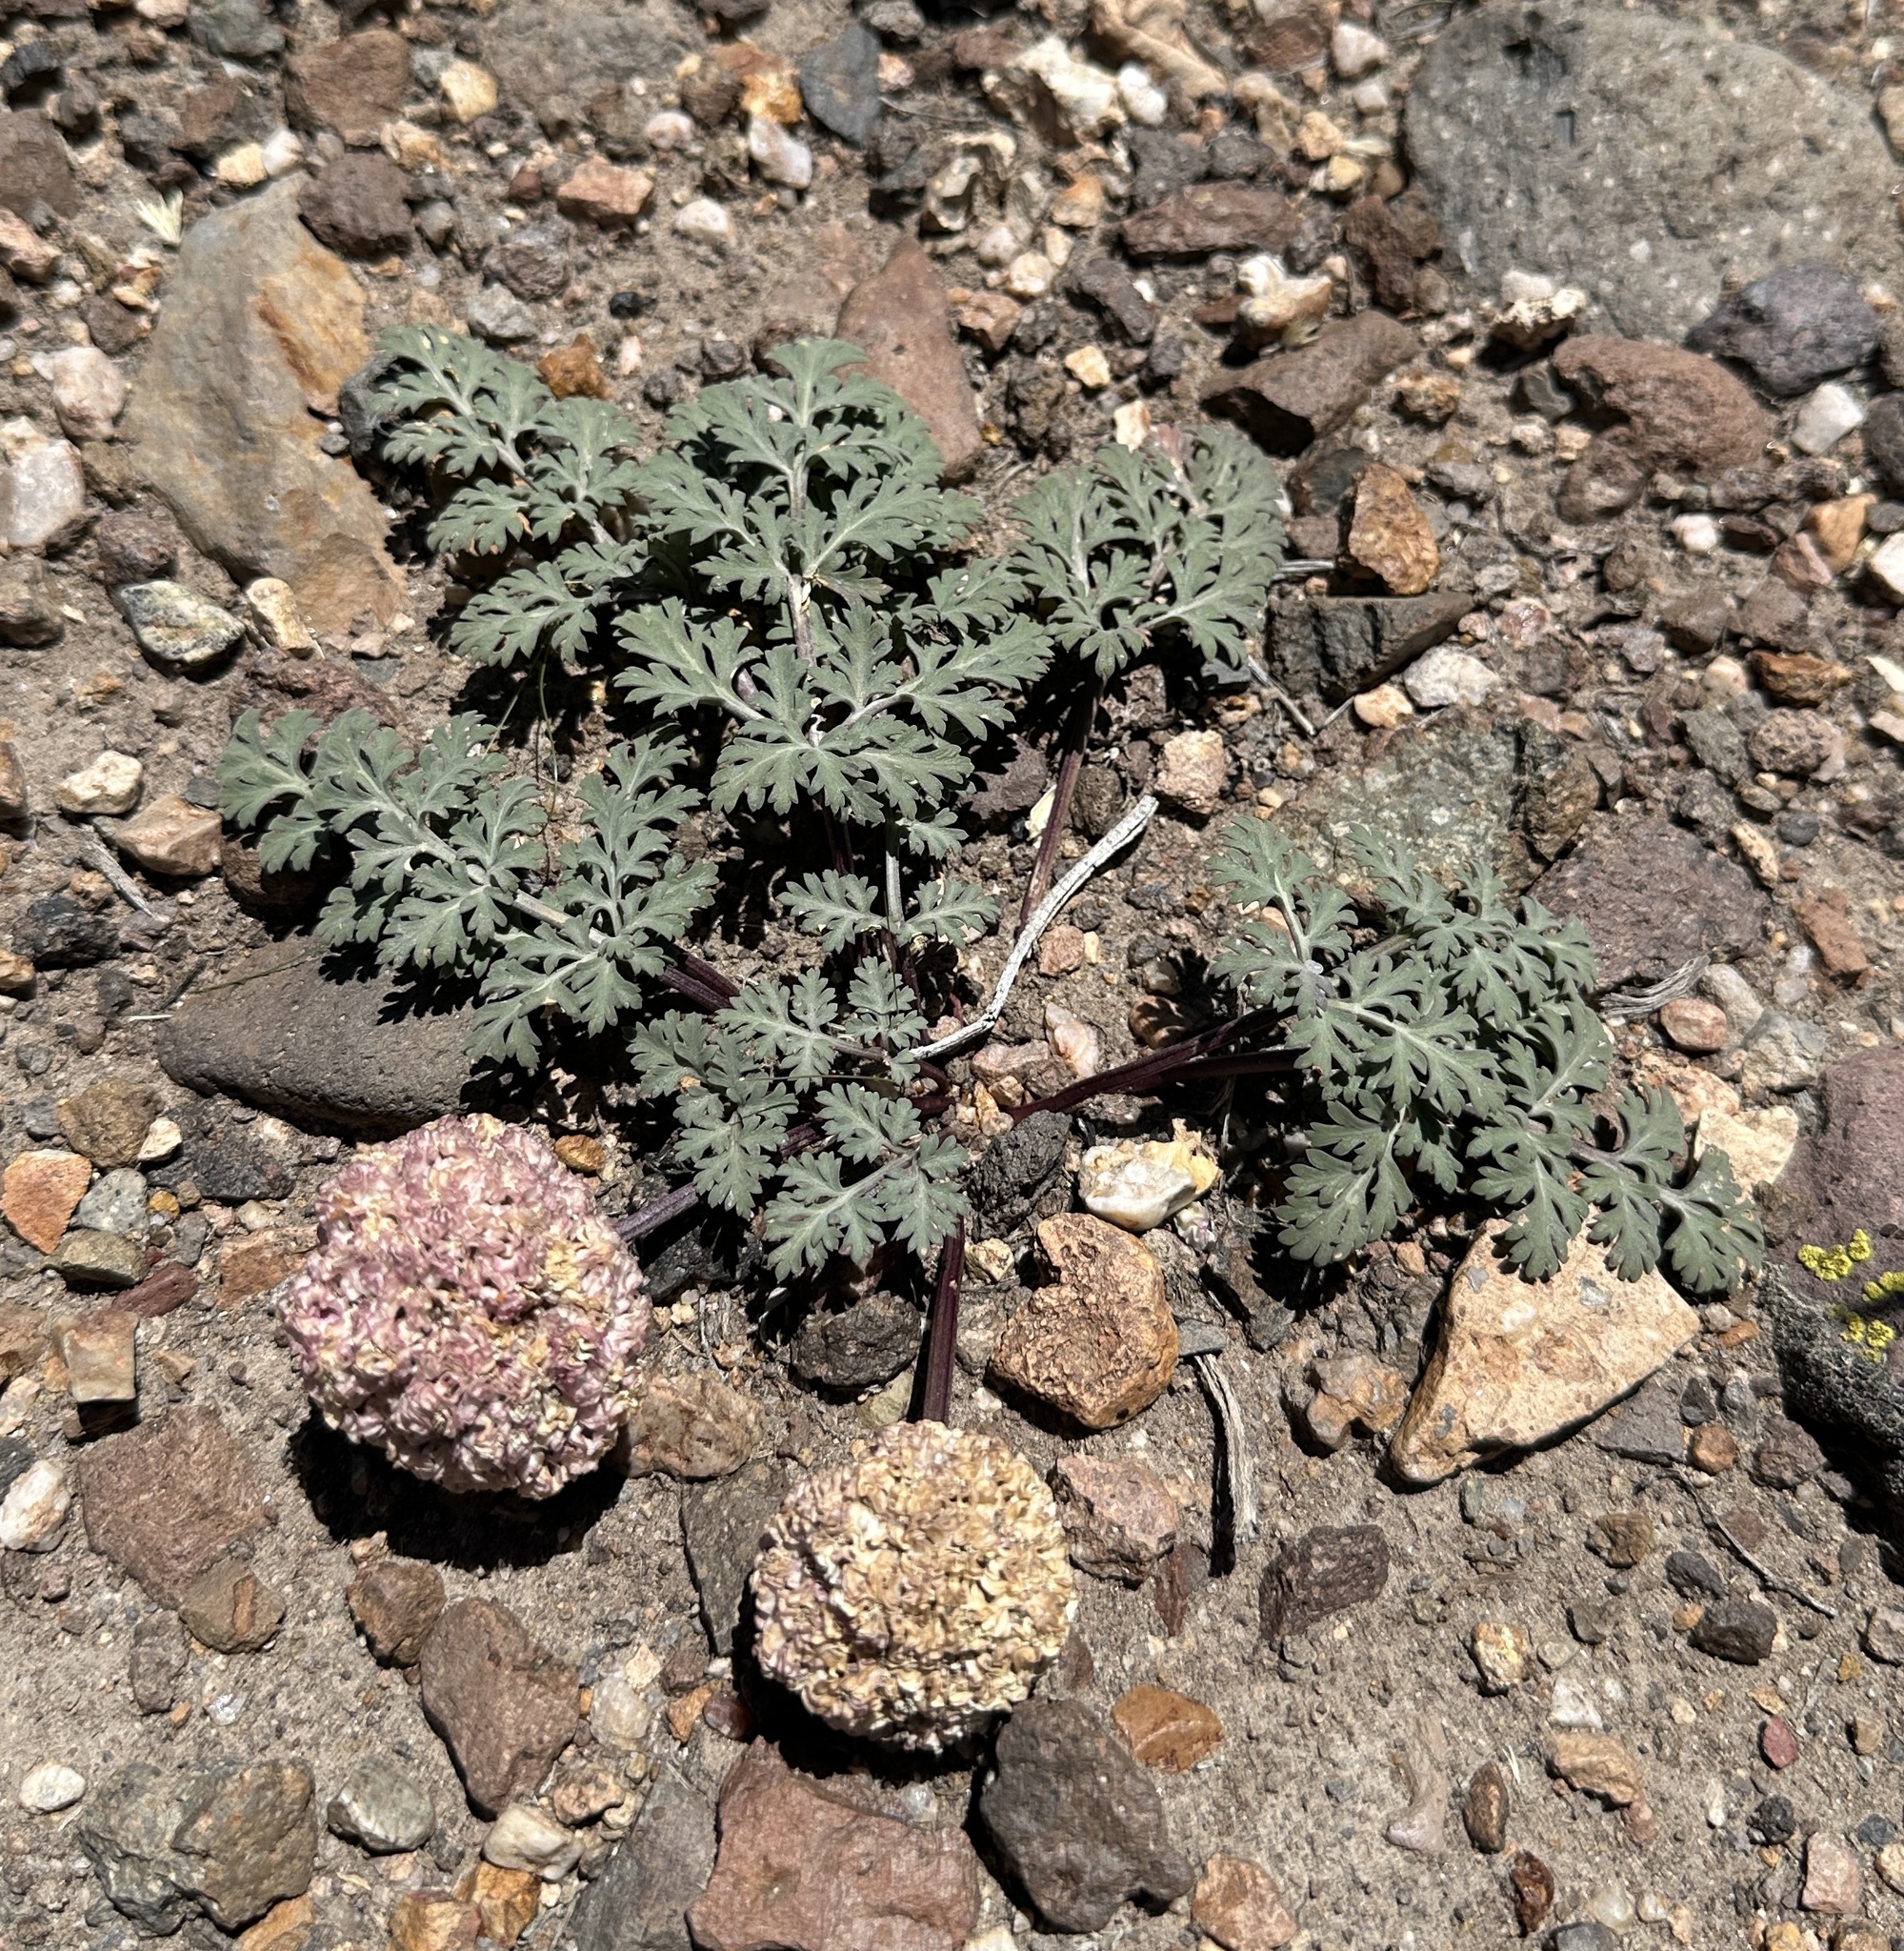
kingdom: Plantae
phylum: Tracheophyta
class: Magnoliopsida
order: Apiales
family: Apiaceae
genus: Cymopterus
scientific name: Cymopterus globosus
